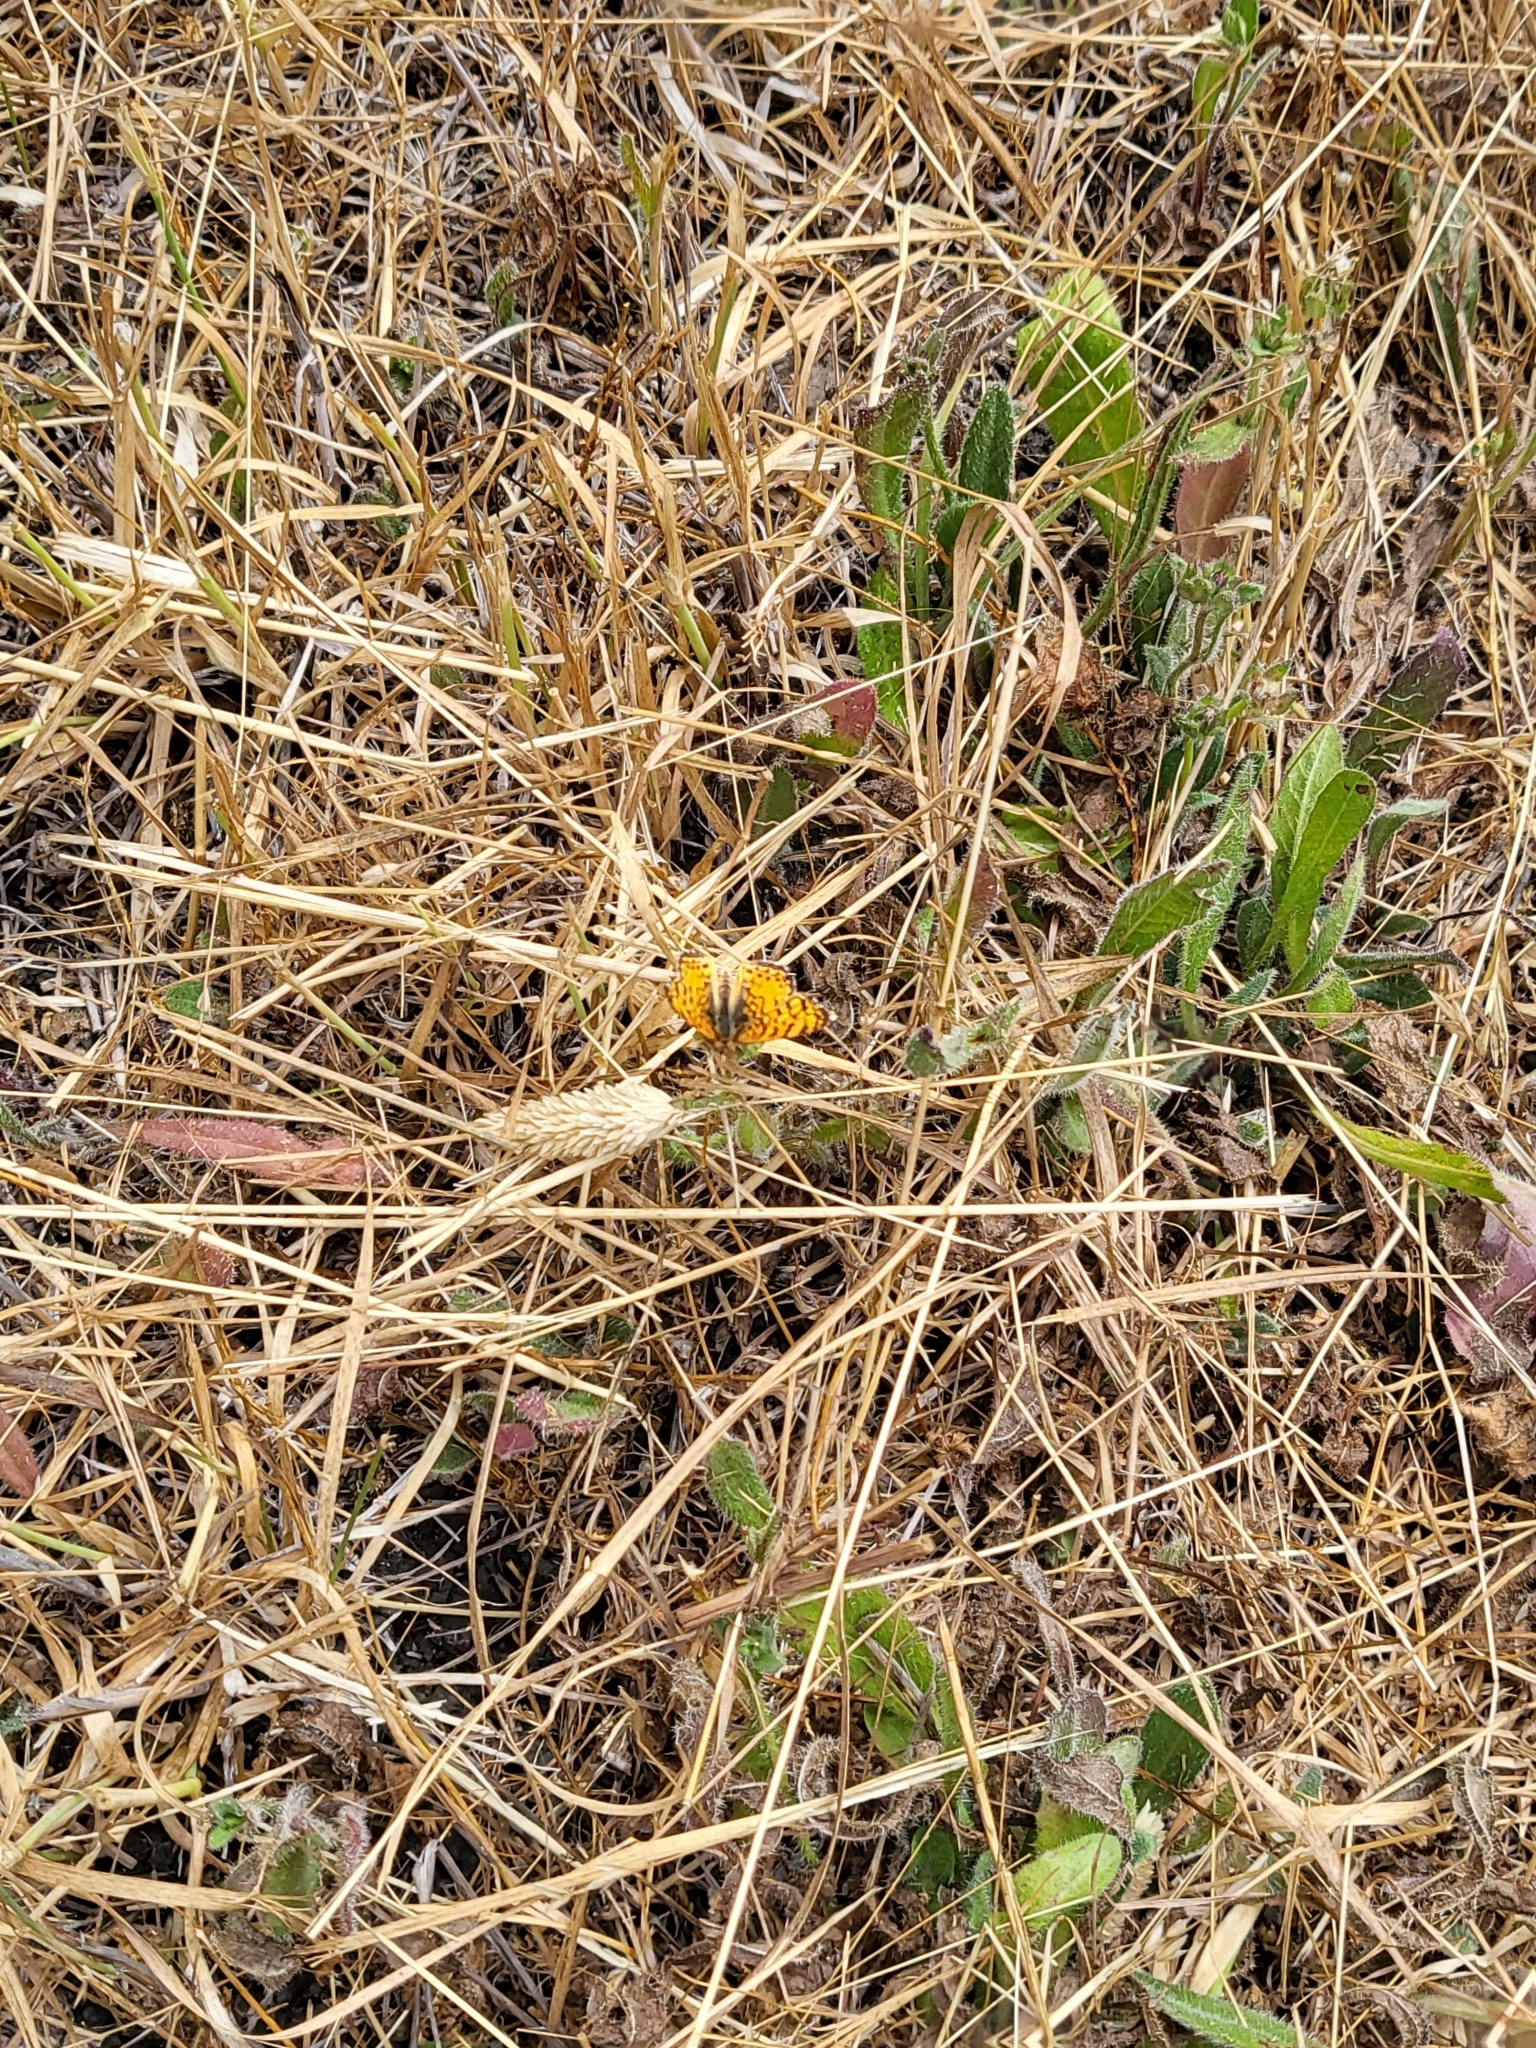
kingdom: Animalia
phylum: Arthropoda
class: Insecta
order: Lepidoptera
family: Nymphalidae
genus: Eresia
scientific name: Eresia aveyrona
